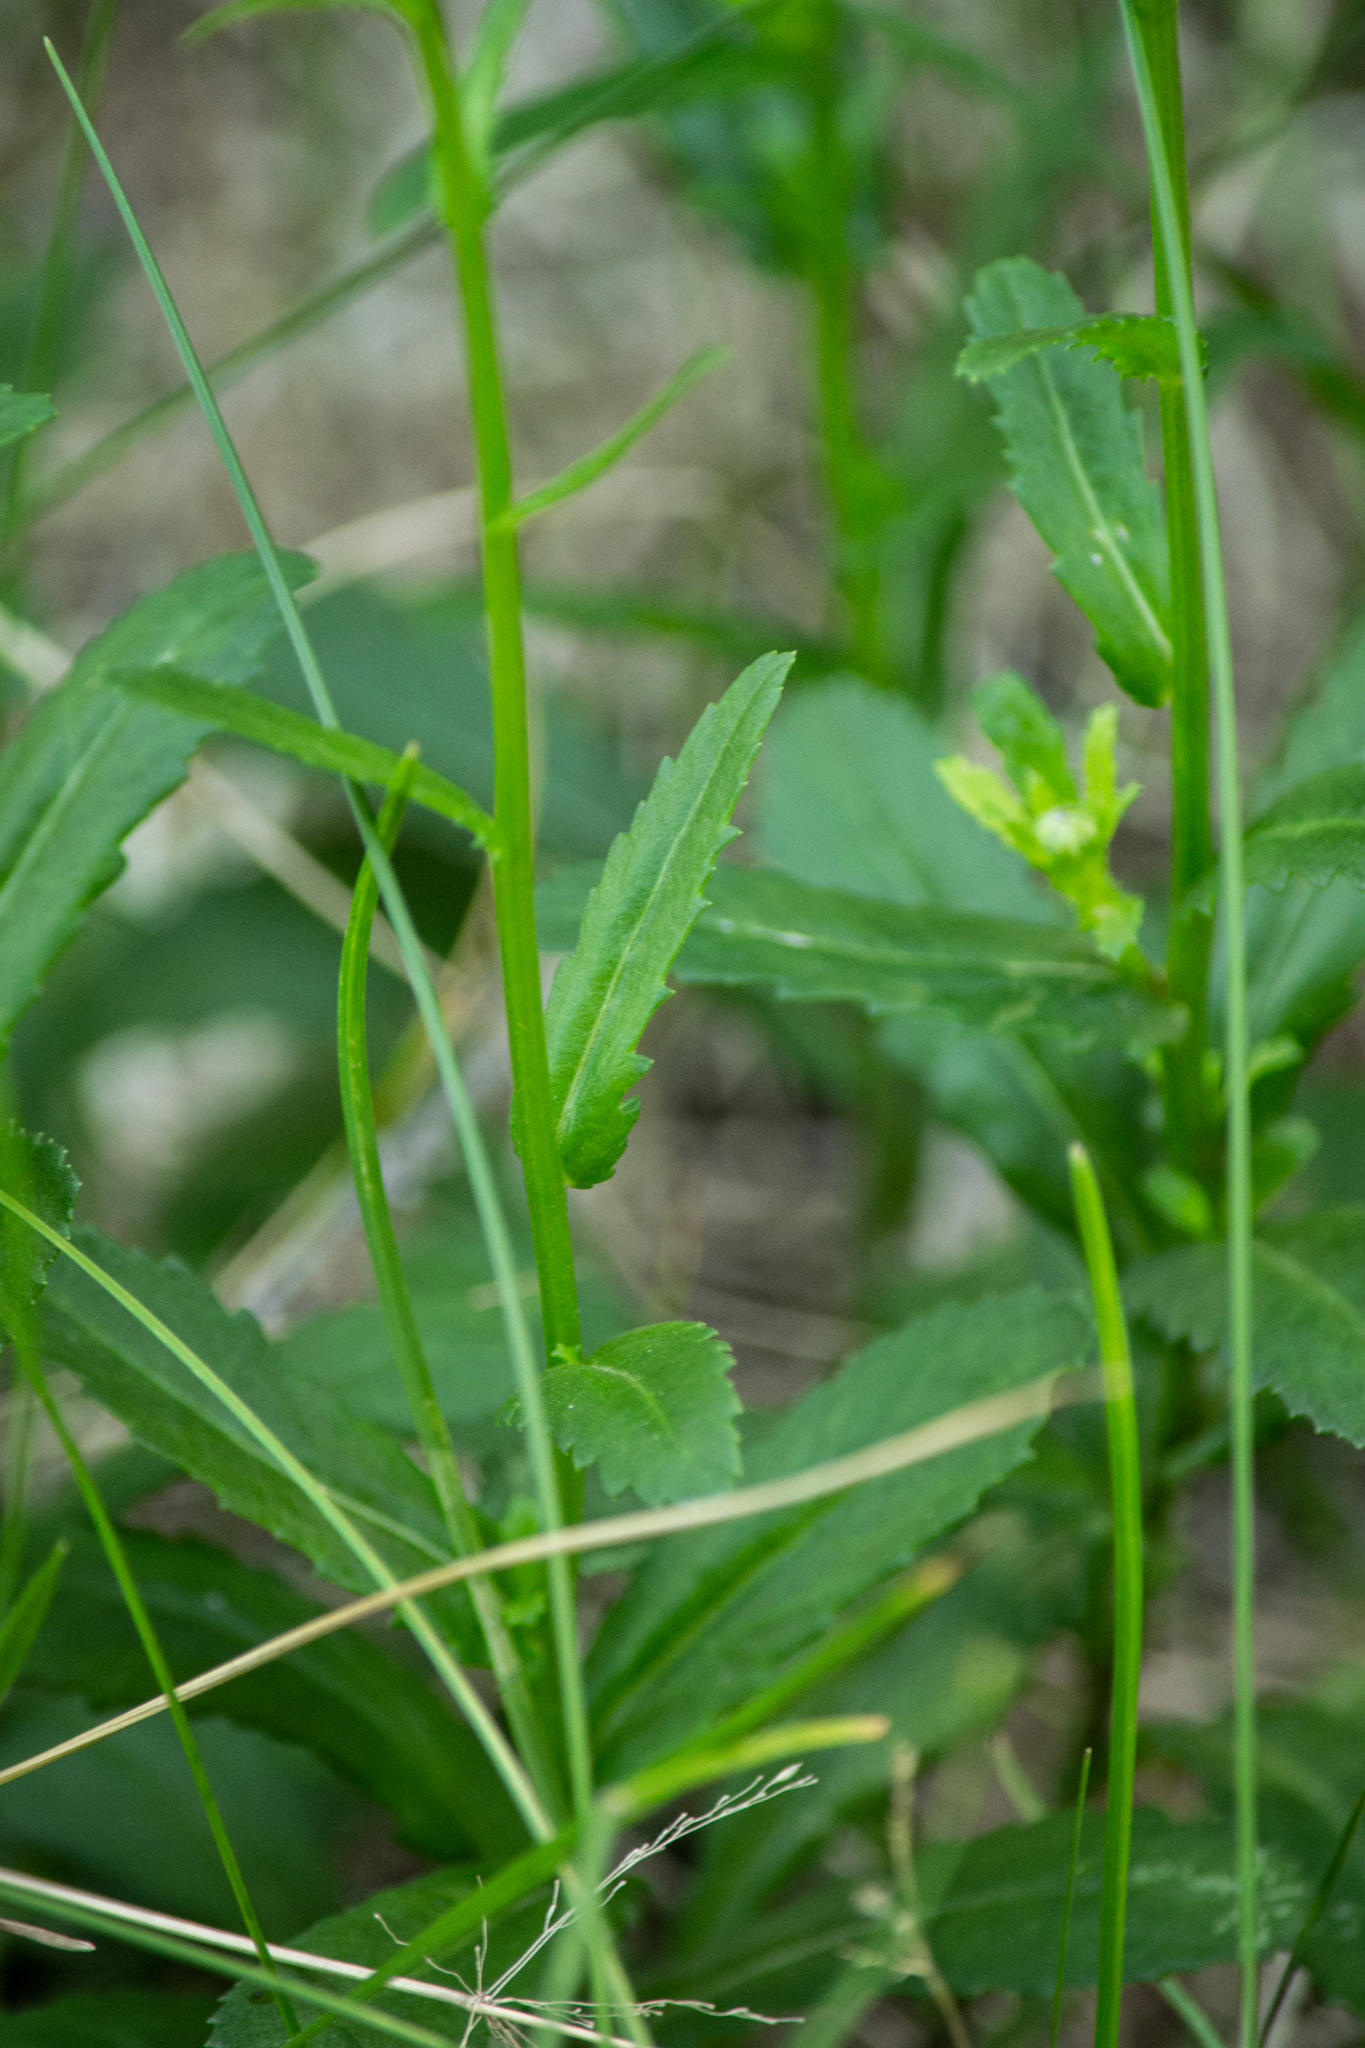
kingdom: Plantae
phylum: Tracheophyta
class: Magnoliopsida
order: Asterales
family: Asteraceae
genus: Leucanthemum
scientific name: Leucanthemum ircutianum
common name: Daisy
